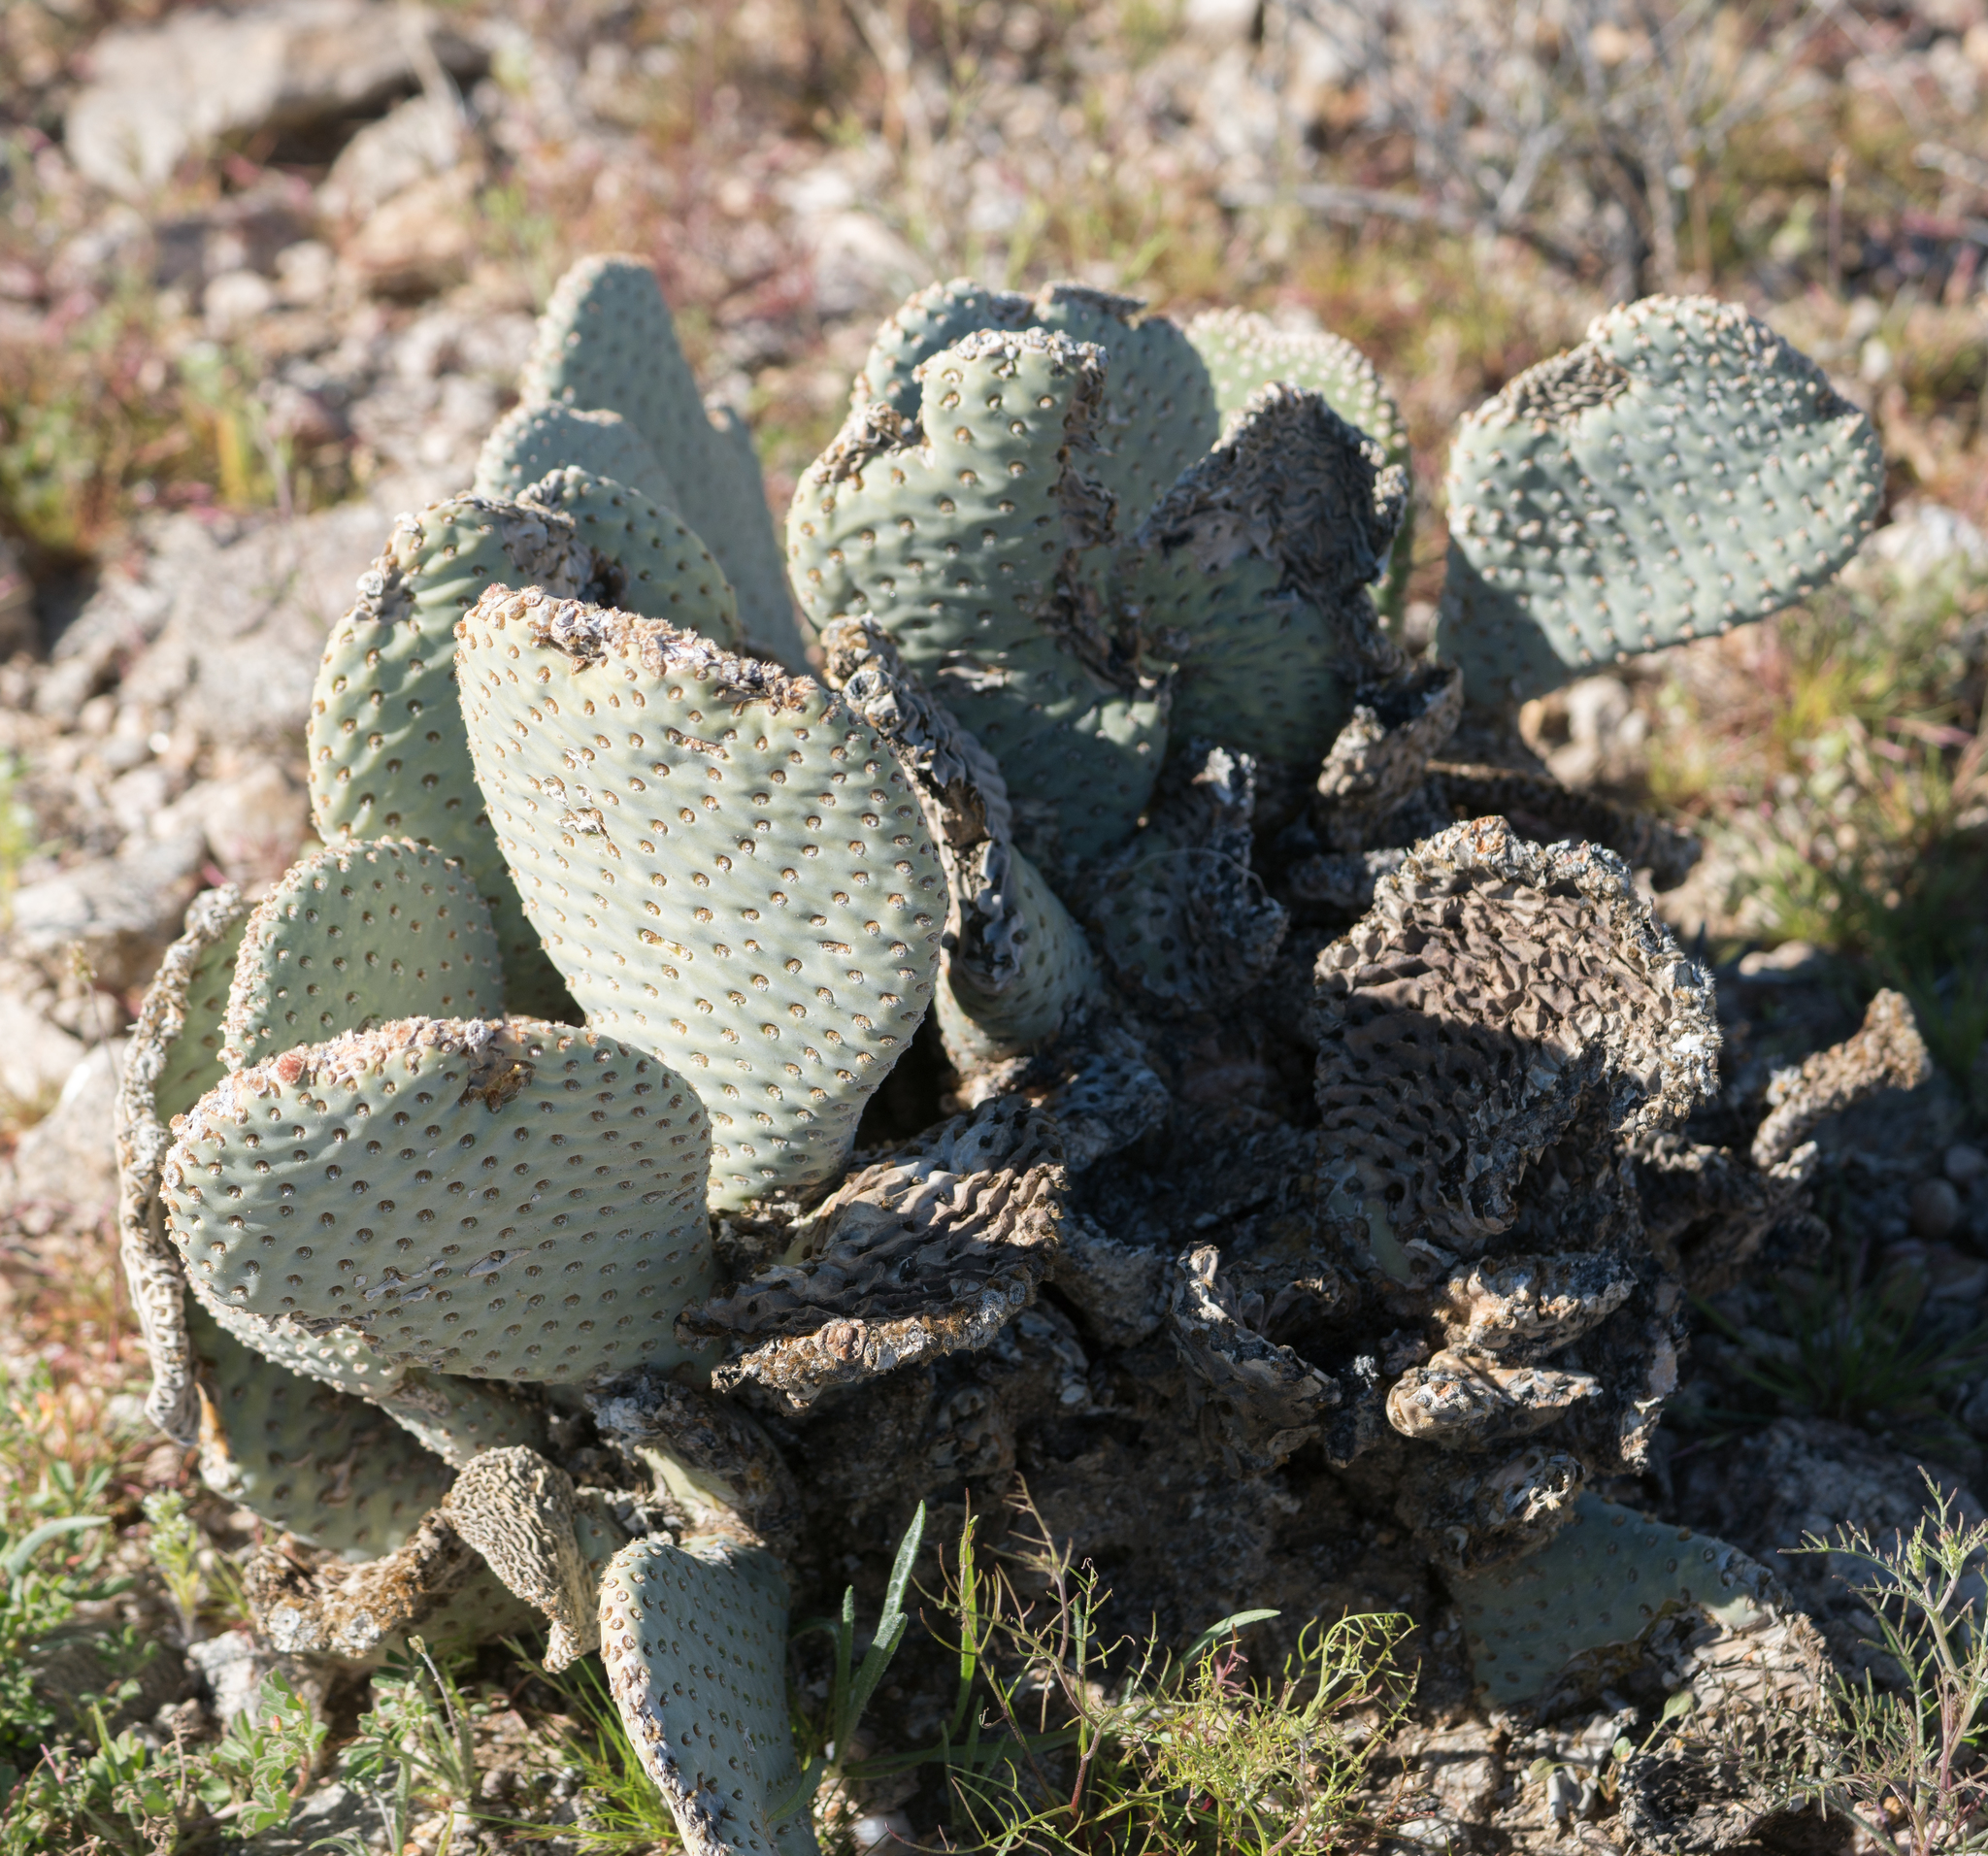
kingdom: Plantae
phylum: Tracheophyta
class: Magnoliopsida
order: Caryophyllales
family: Cactaceae
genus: Opuntia
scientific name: Opuntia basilaris
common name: Beavertail prickly-pear
